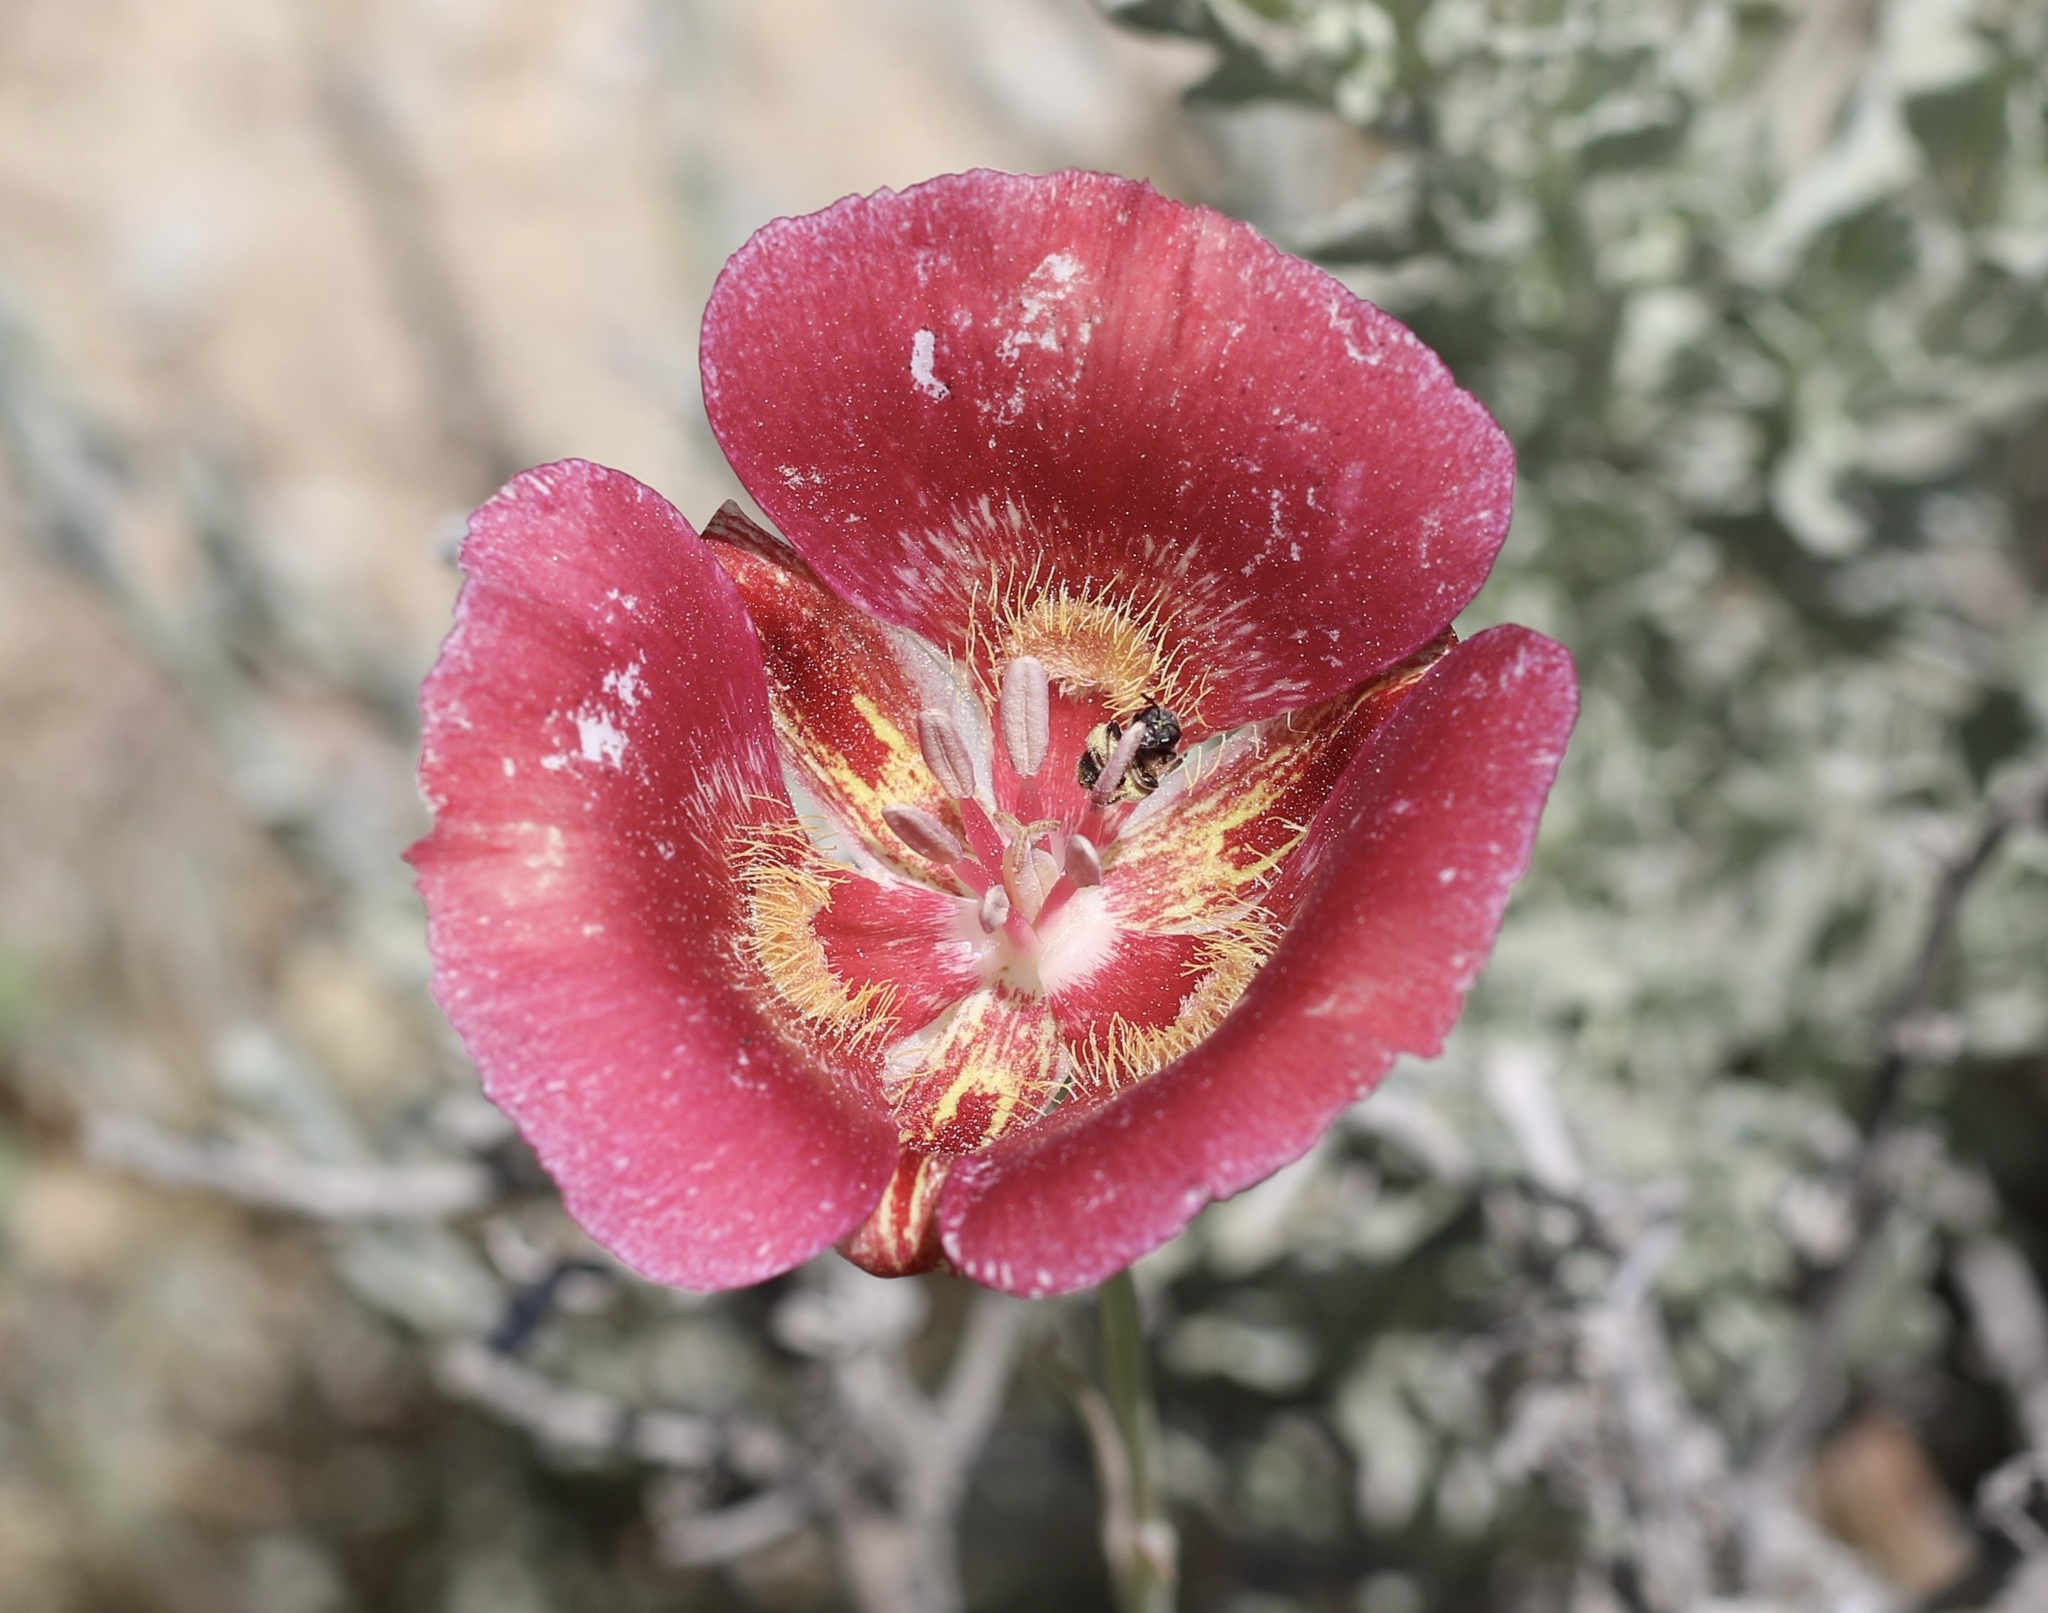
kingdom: Plantae
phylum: Tracheophyta
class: Liliopsida
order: Liliales
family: Liliaceae
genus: Calochortus
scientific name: Calochortus venustus
